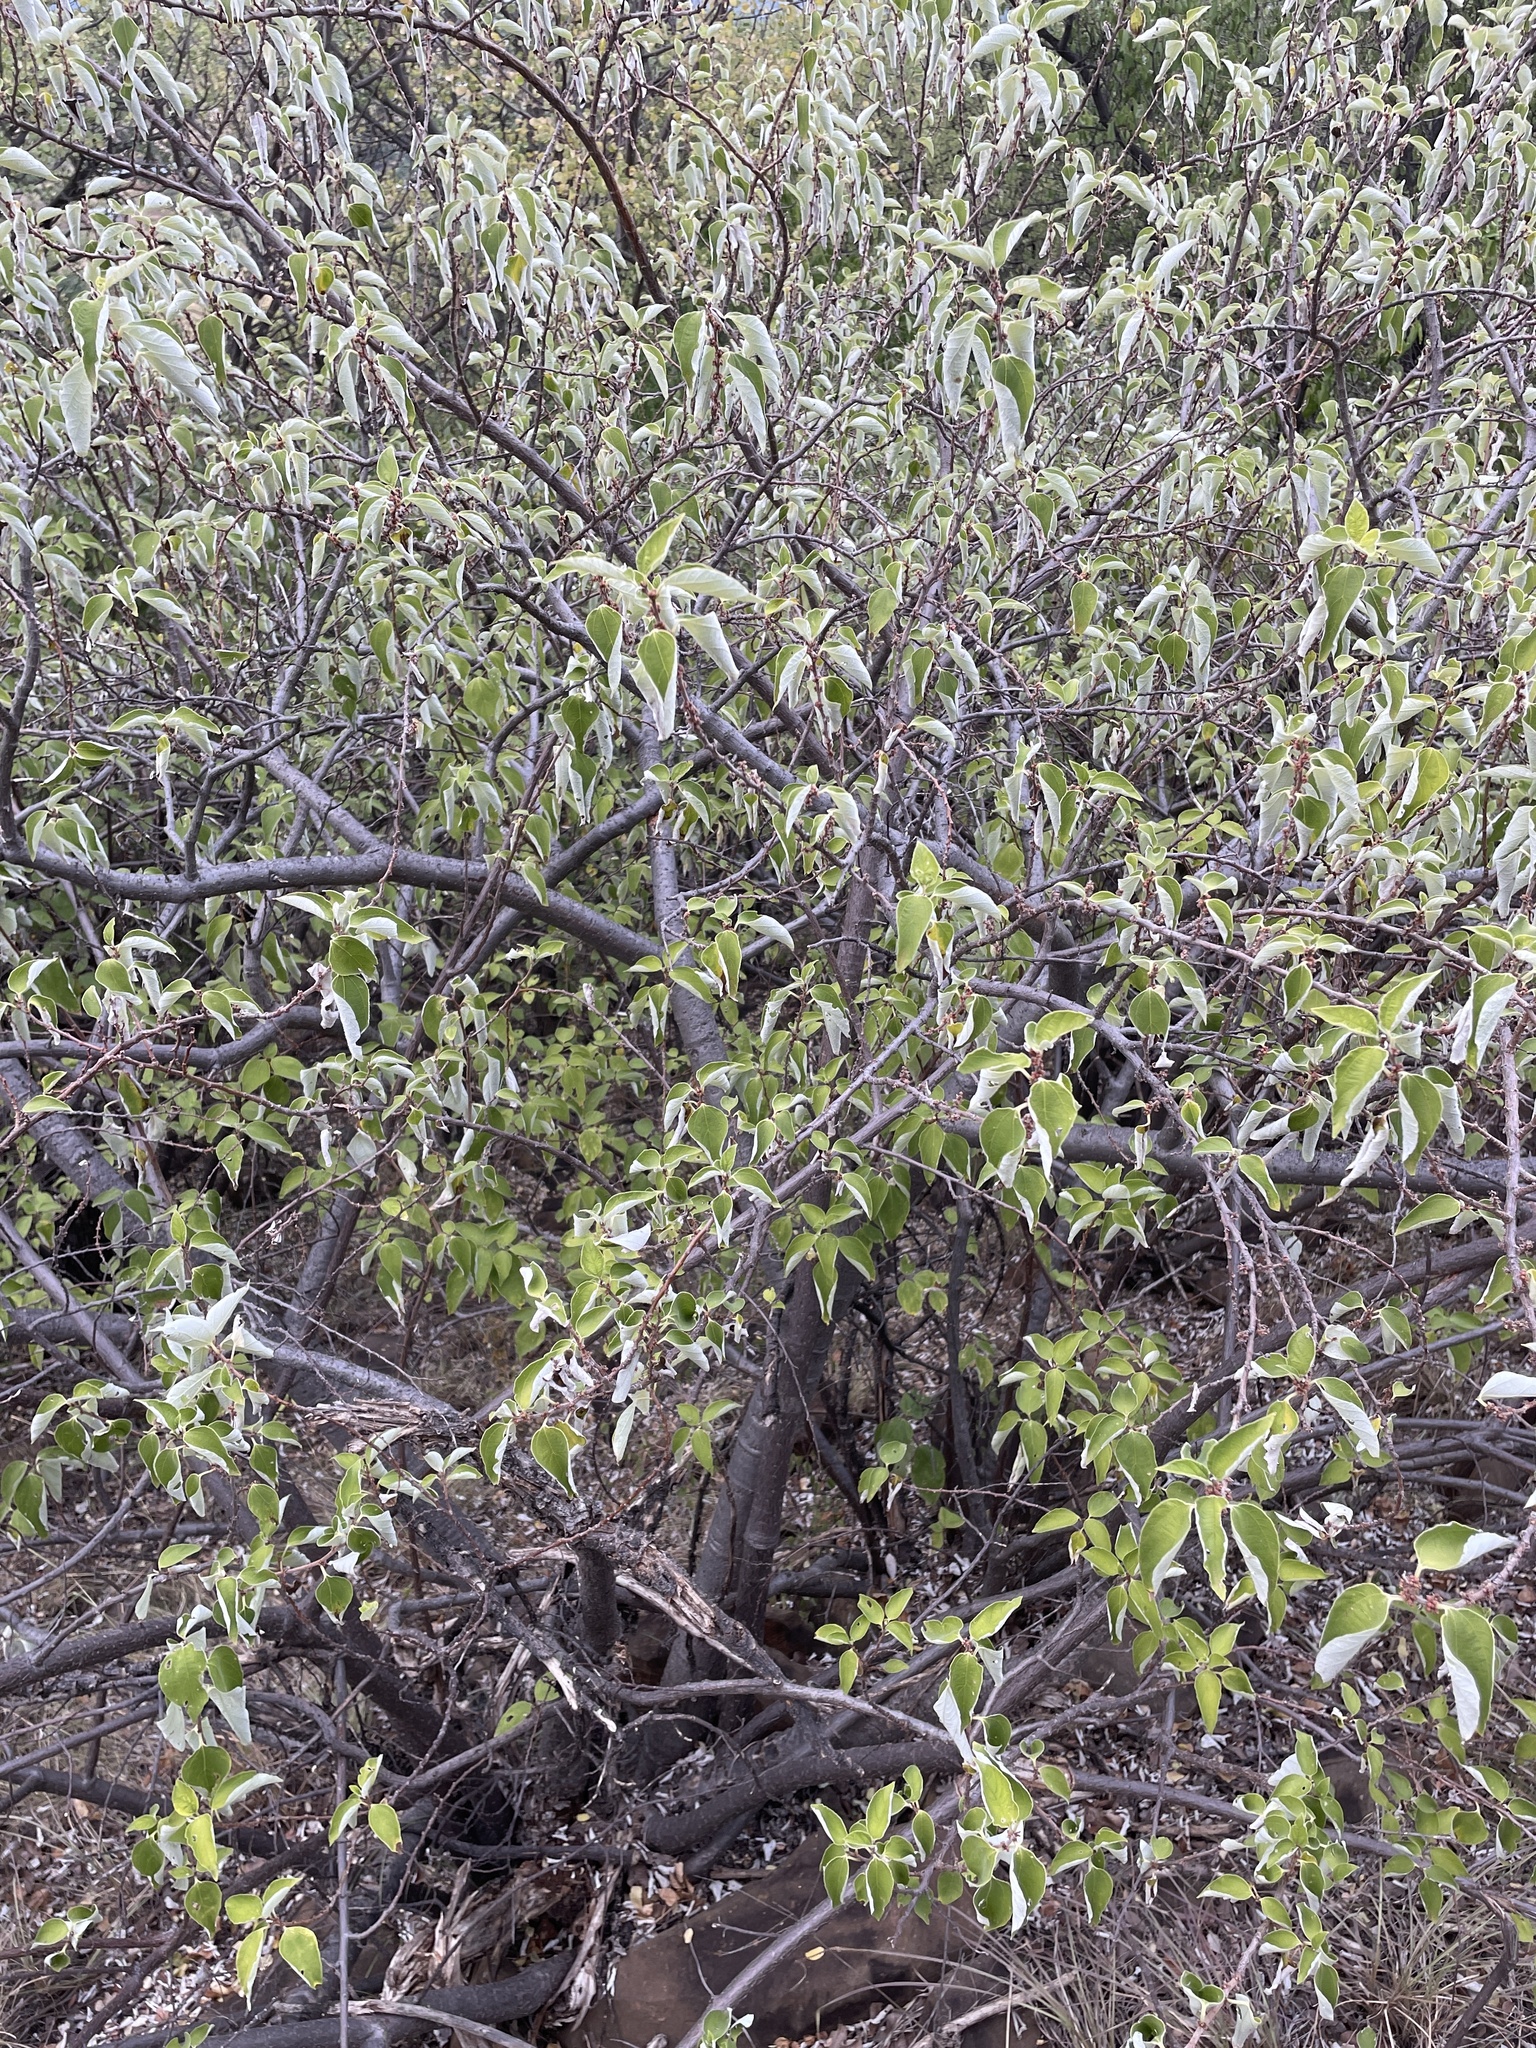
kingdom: Plantae
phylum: Tracheophyta
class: Magnoliopsida
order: Rosales
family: Urticaceae
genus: Pouzolzia
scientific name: Pouzolzia mixta
